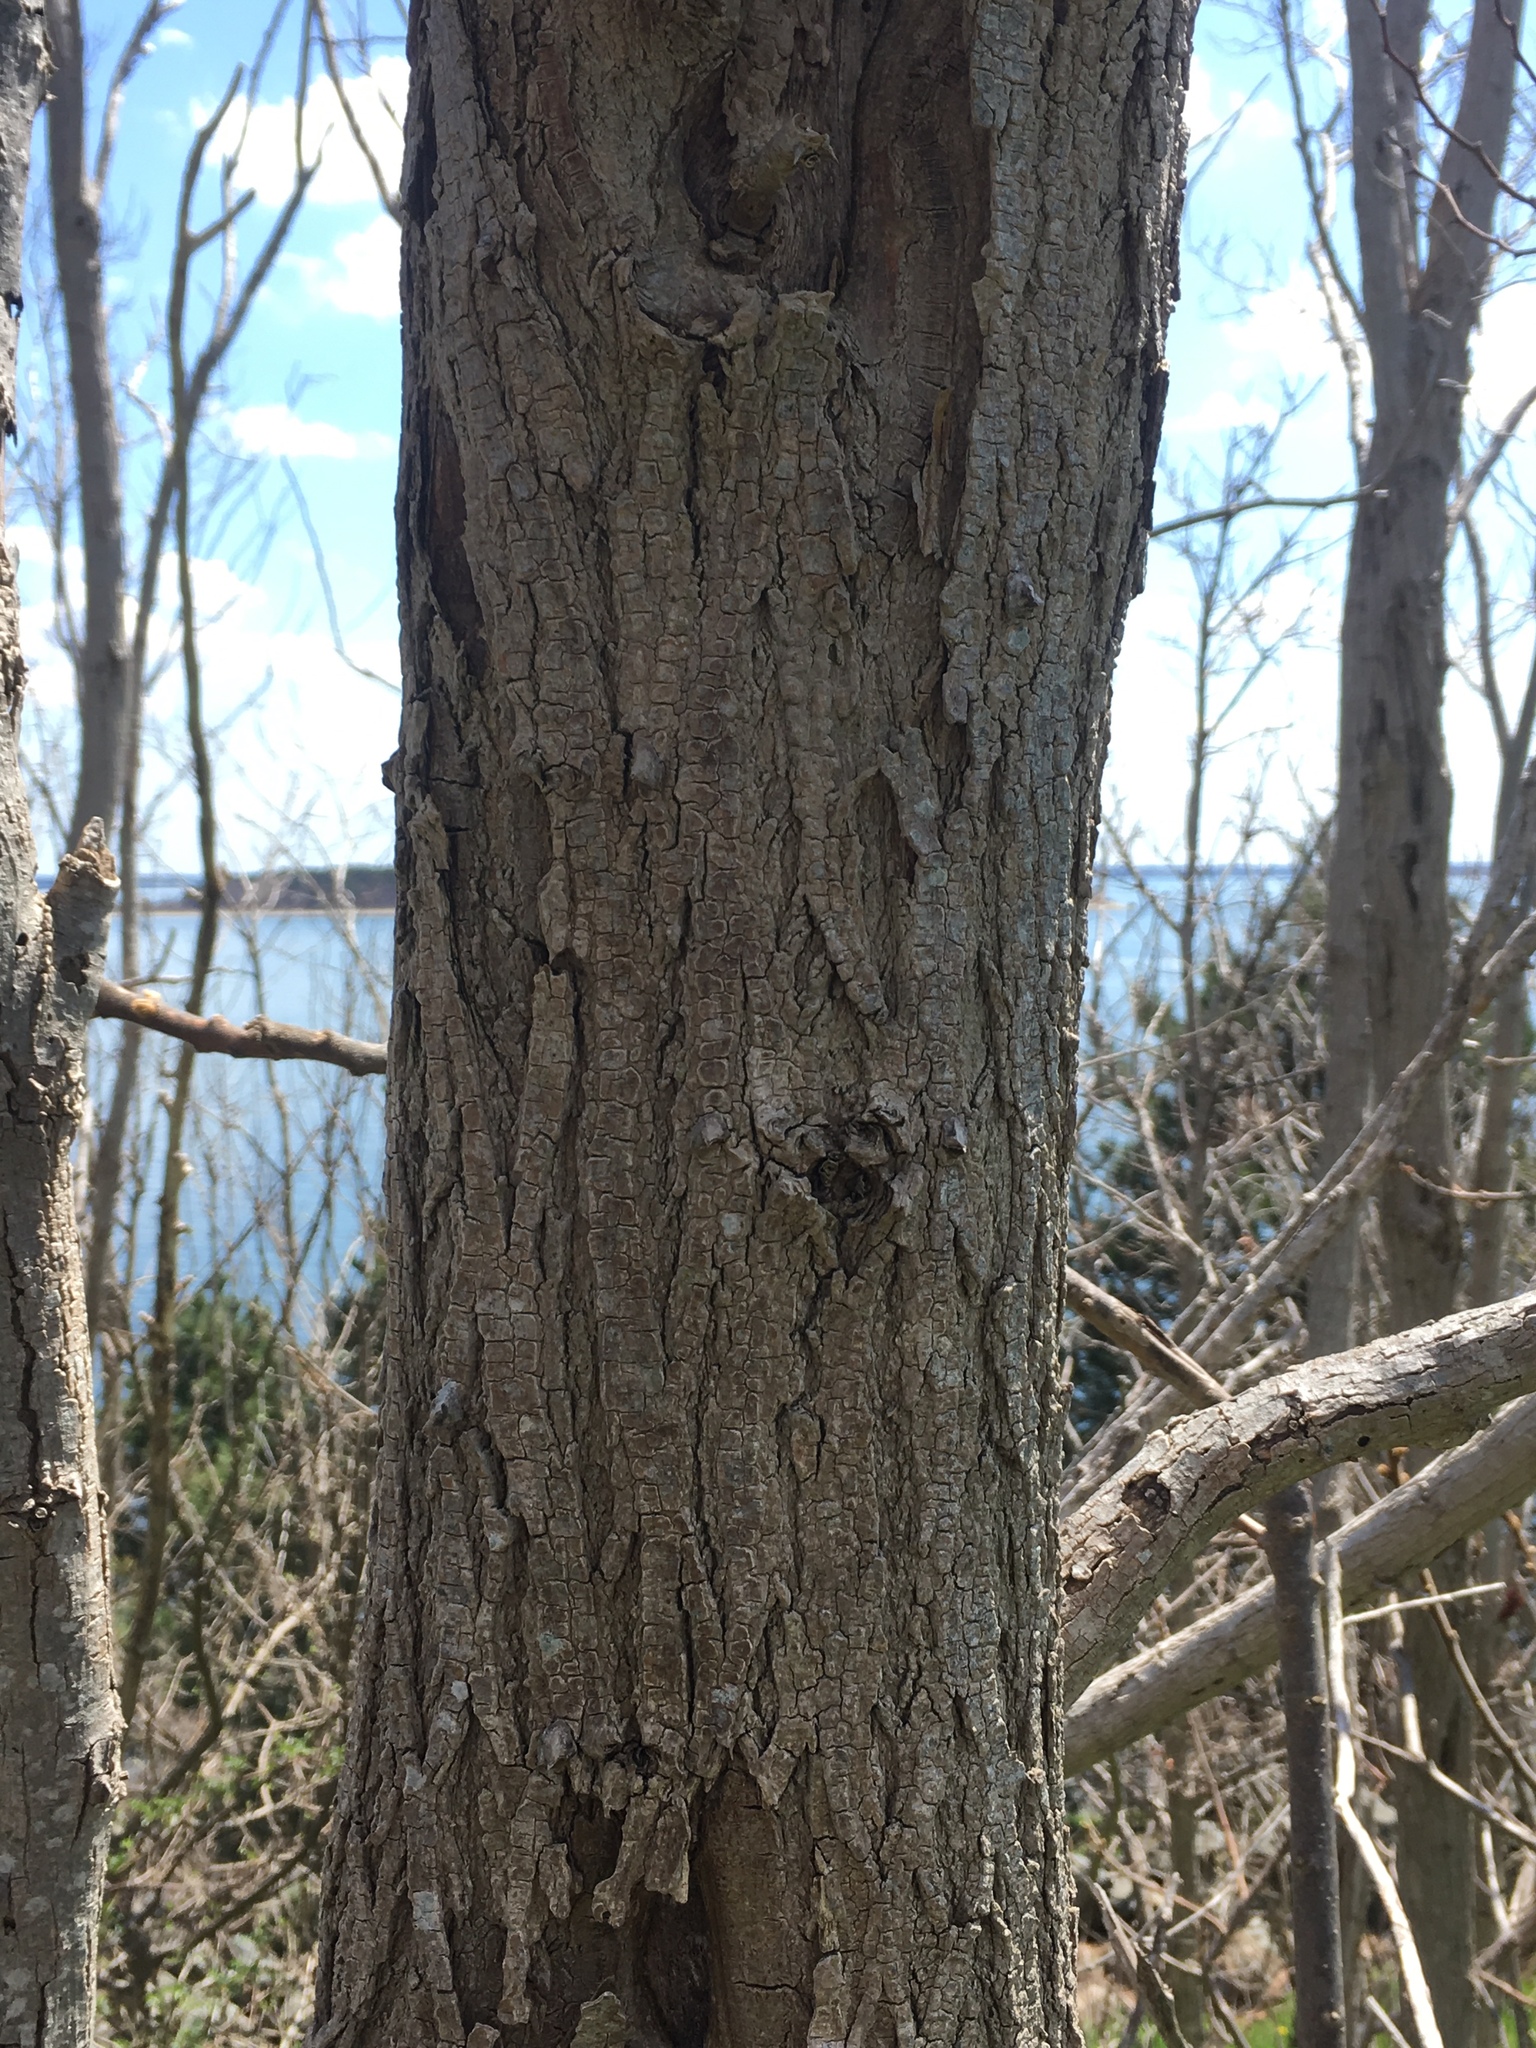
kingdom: Plantae
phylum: Tracheophyta
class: Magnoliopsida
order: Fabales
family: Fabaceae
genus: Robinia
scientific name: Robinia pseudoacacia
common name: Black locust
